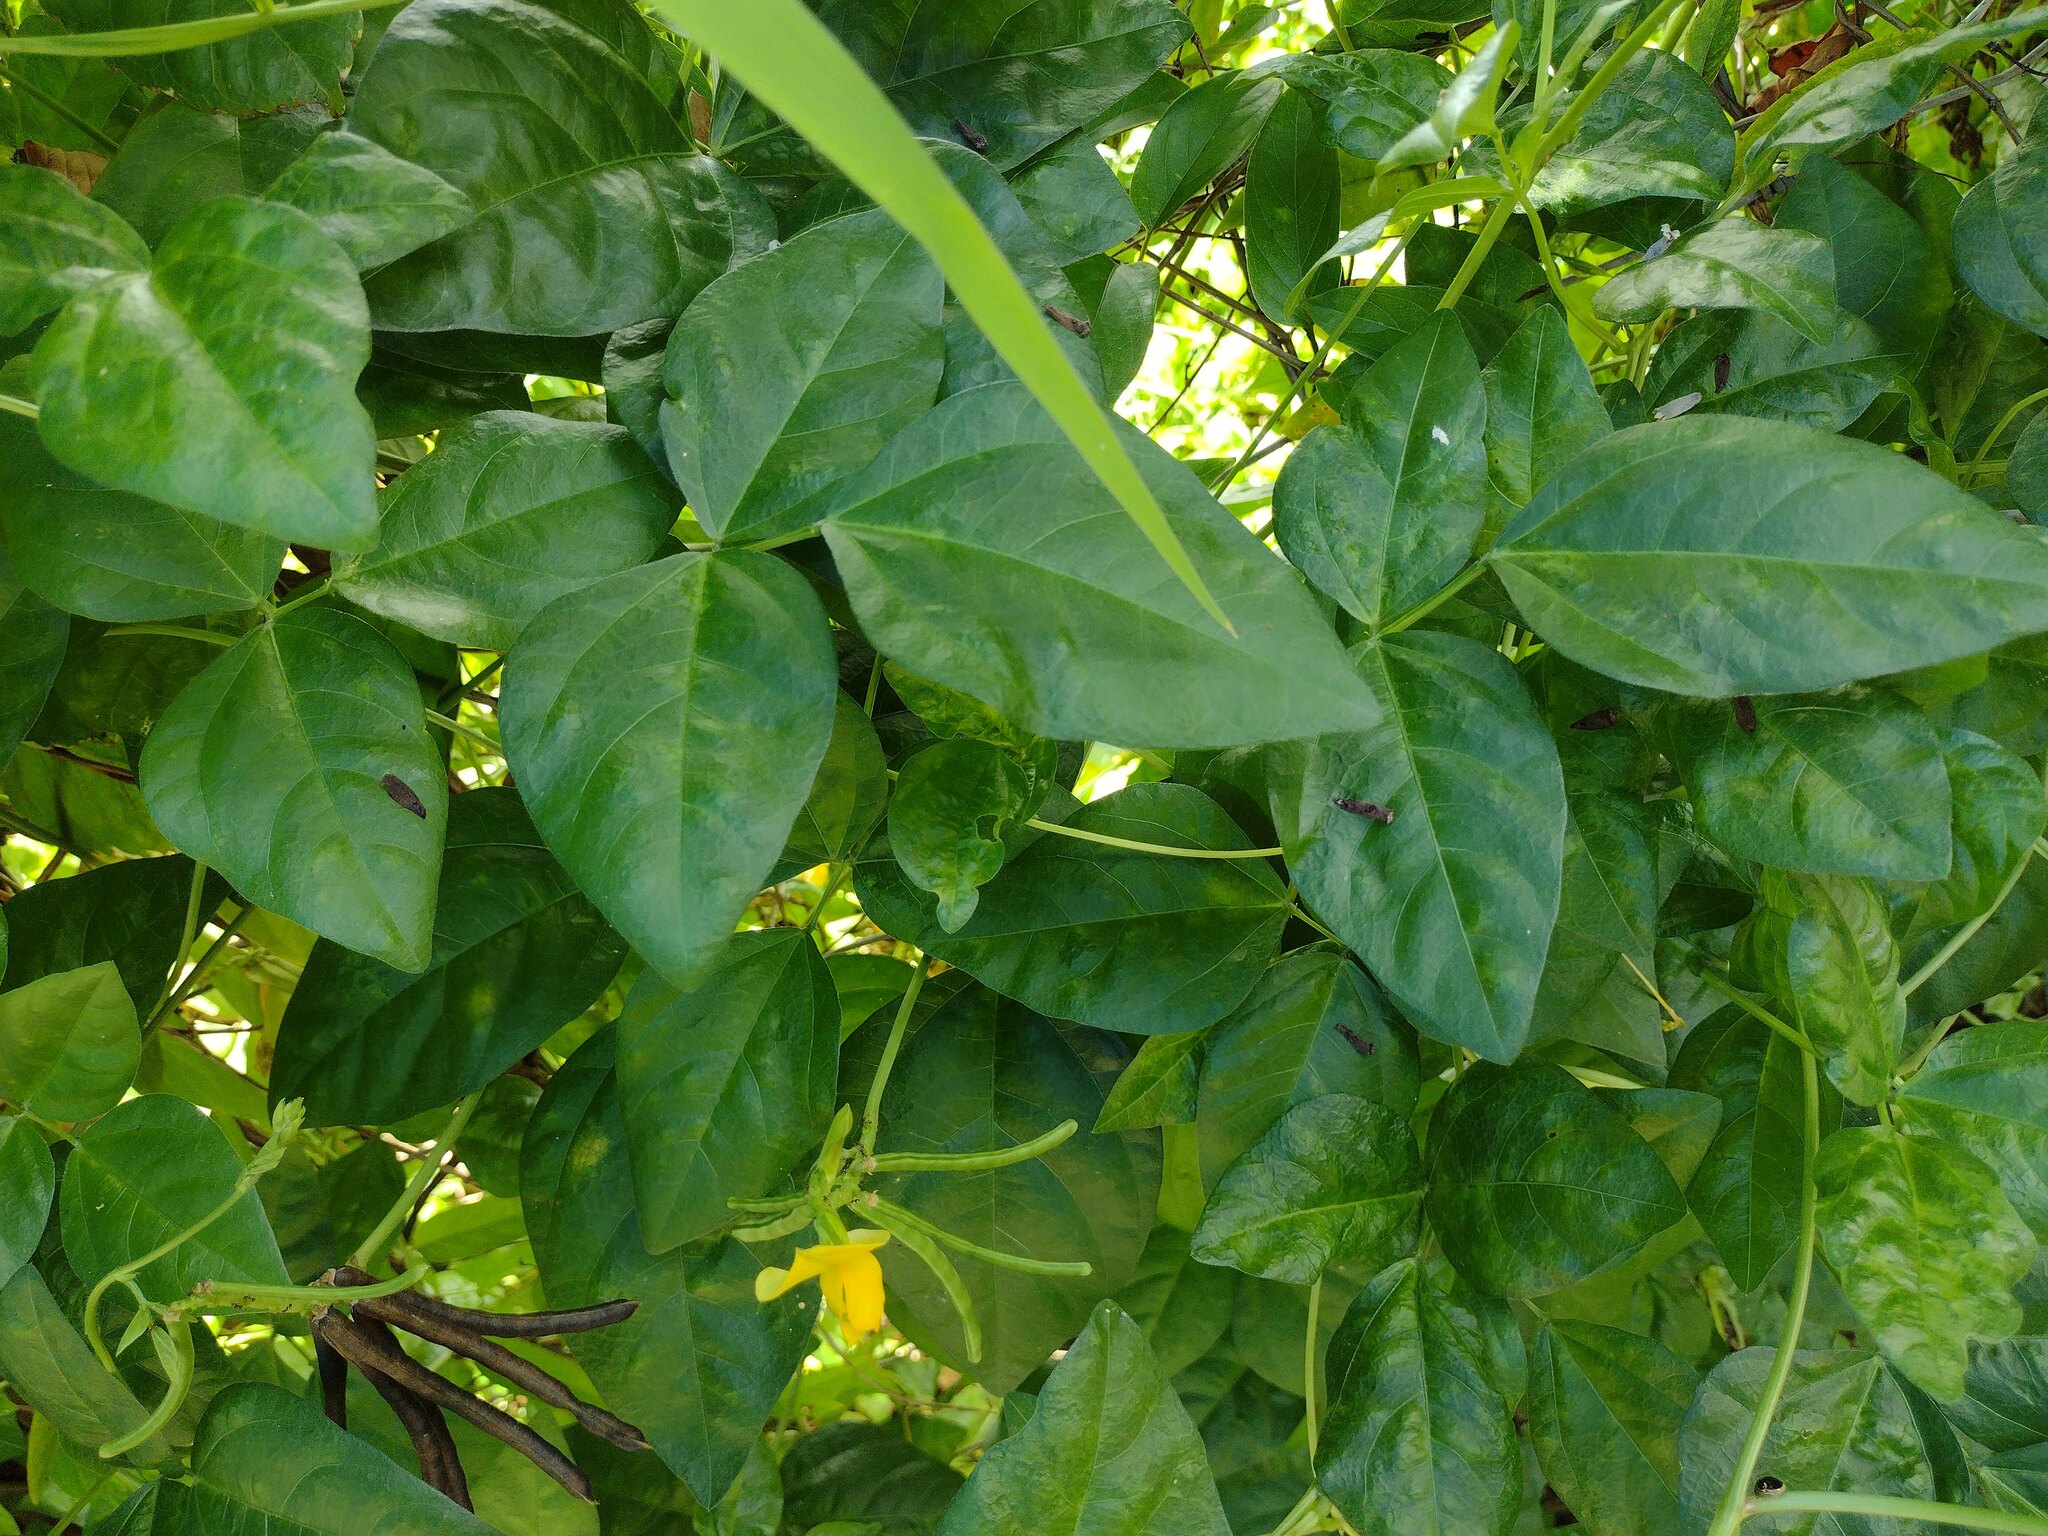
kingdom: Plantae
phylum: Tracheophyta
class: Magnoliopsida
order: Fabales
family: Fabaceae
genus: Vigna
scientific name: Vigna luteola
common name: Hairypod cowpea
